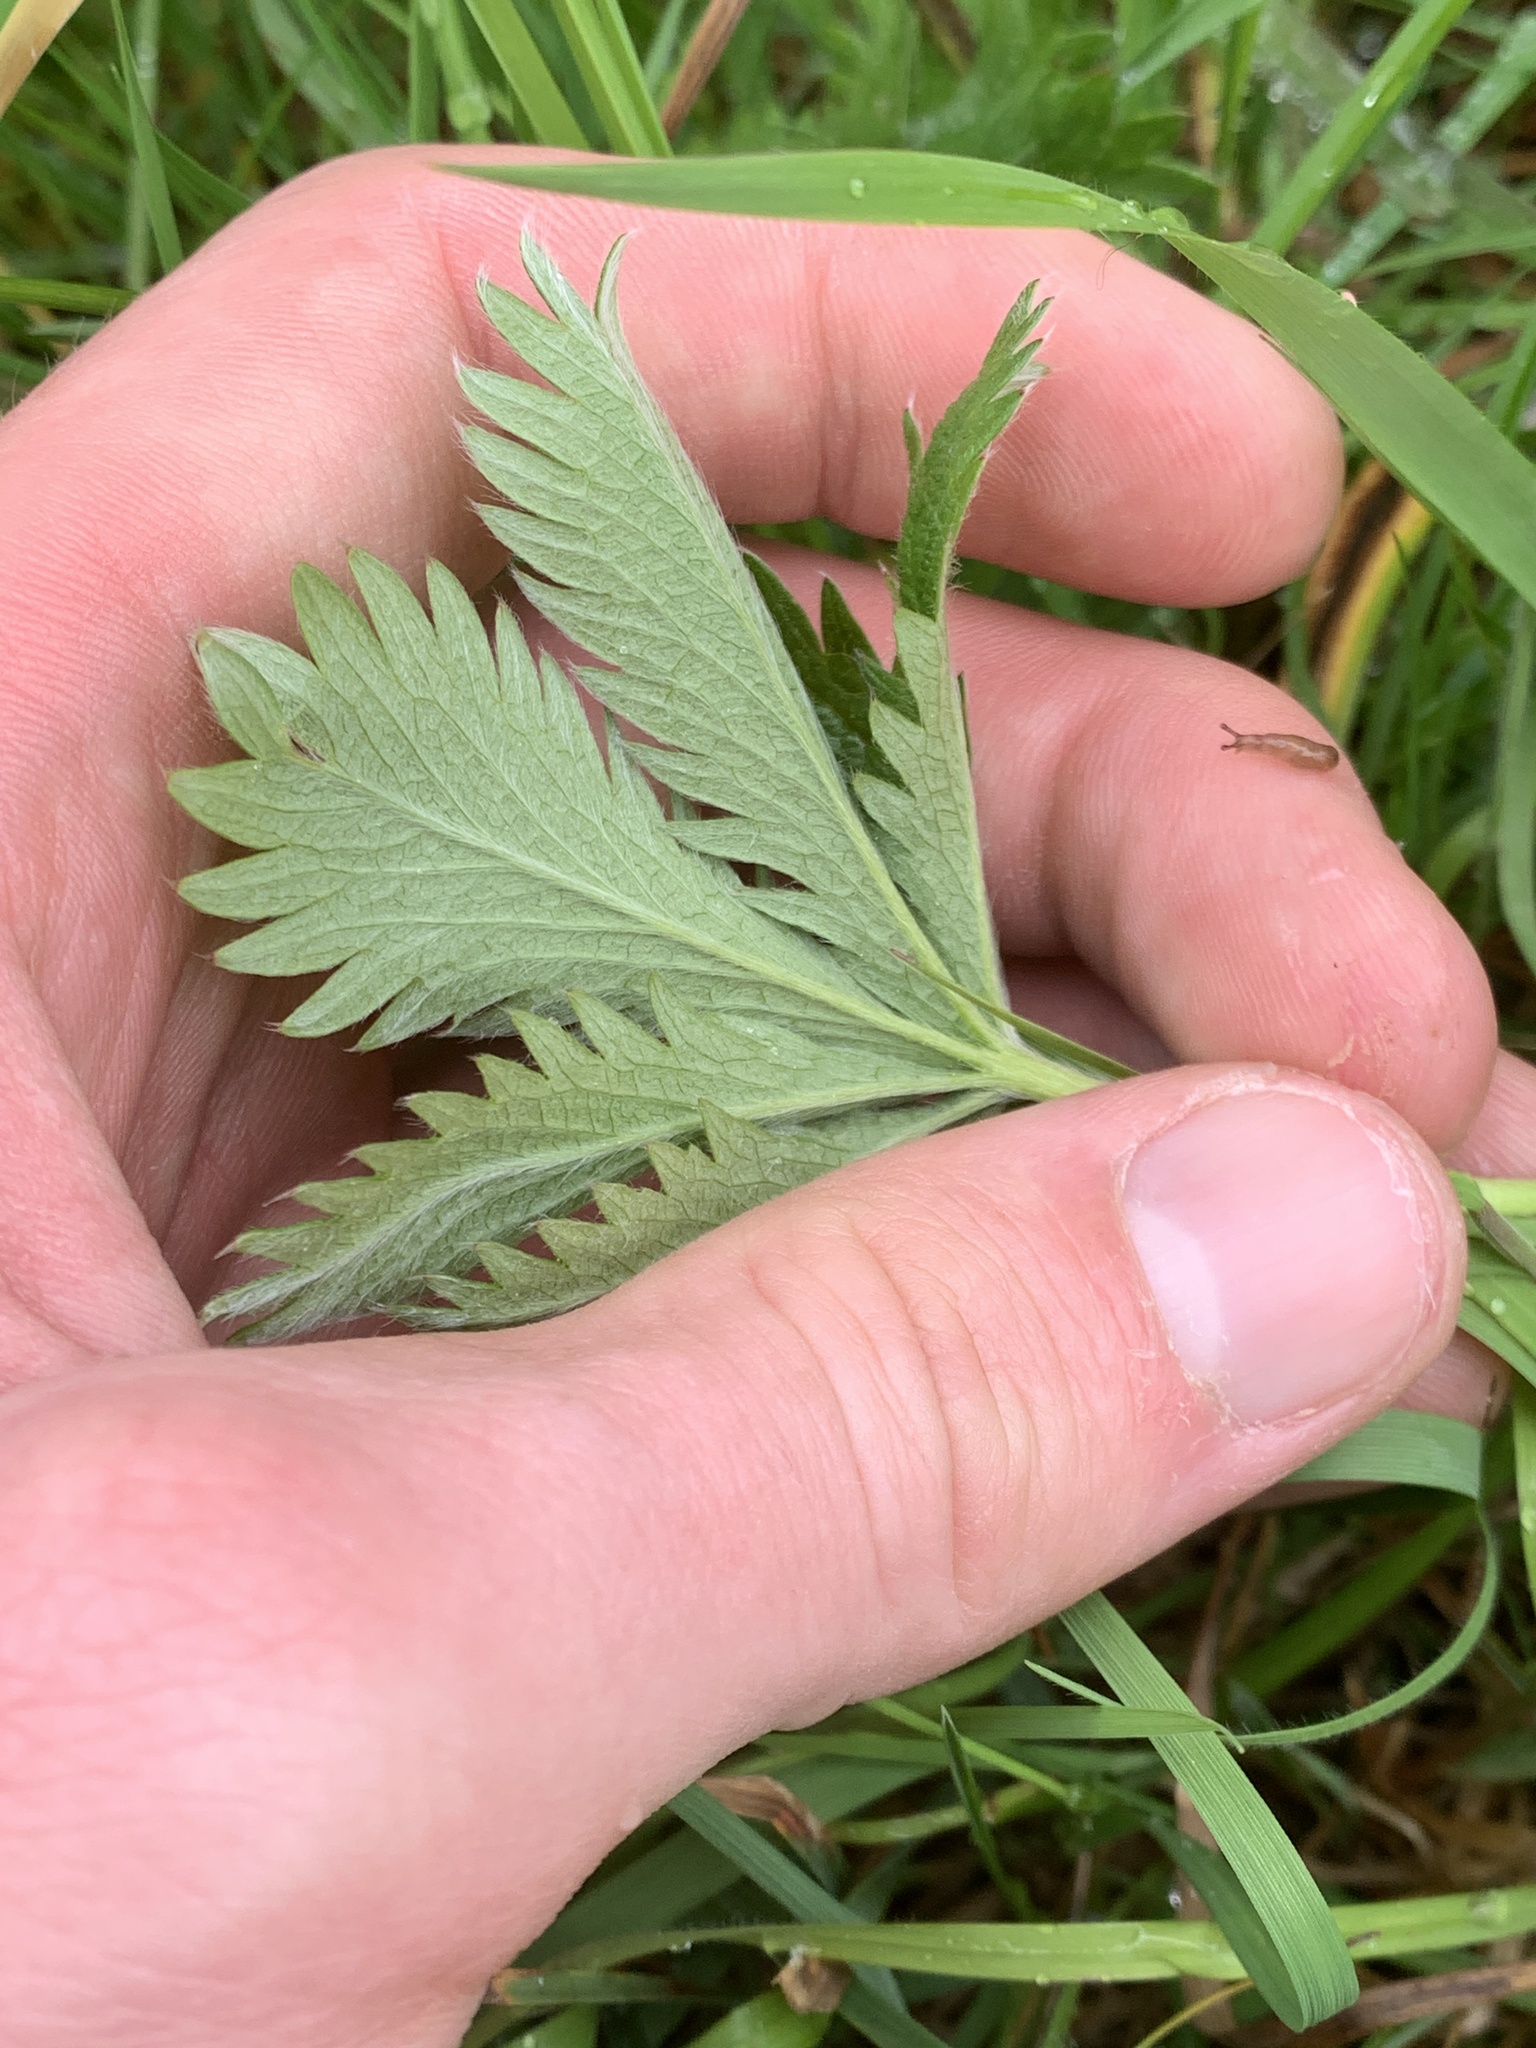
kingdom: Plantae
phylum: Tracheophyta
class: Magnoliopsida
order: Rosales
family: Rosaceae
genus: Potentilla
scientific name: Potentilla gracilis
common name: Graceful cinquefoil
